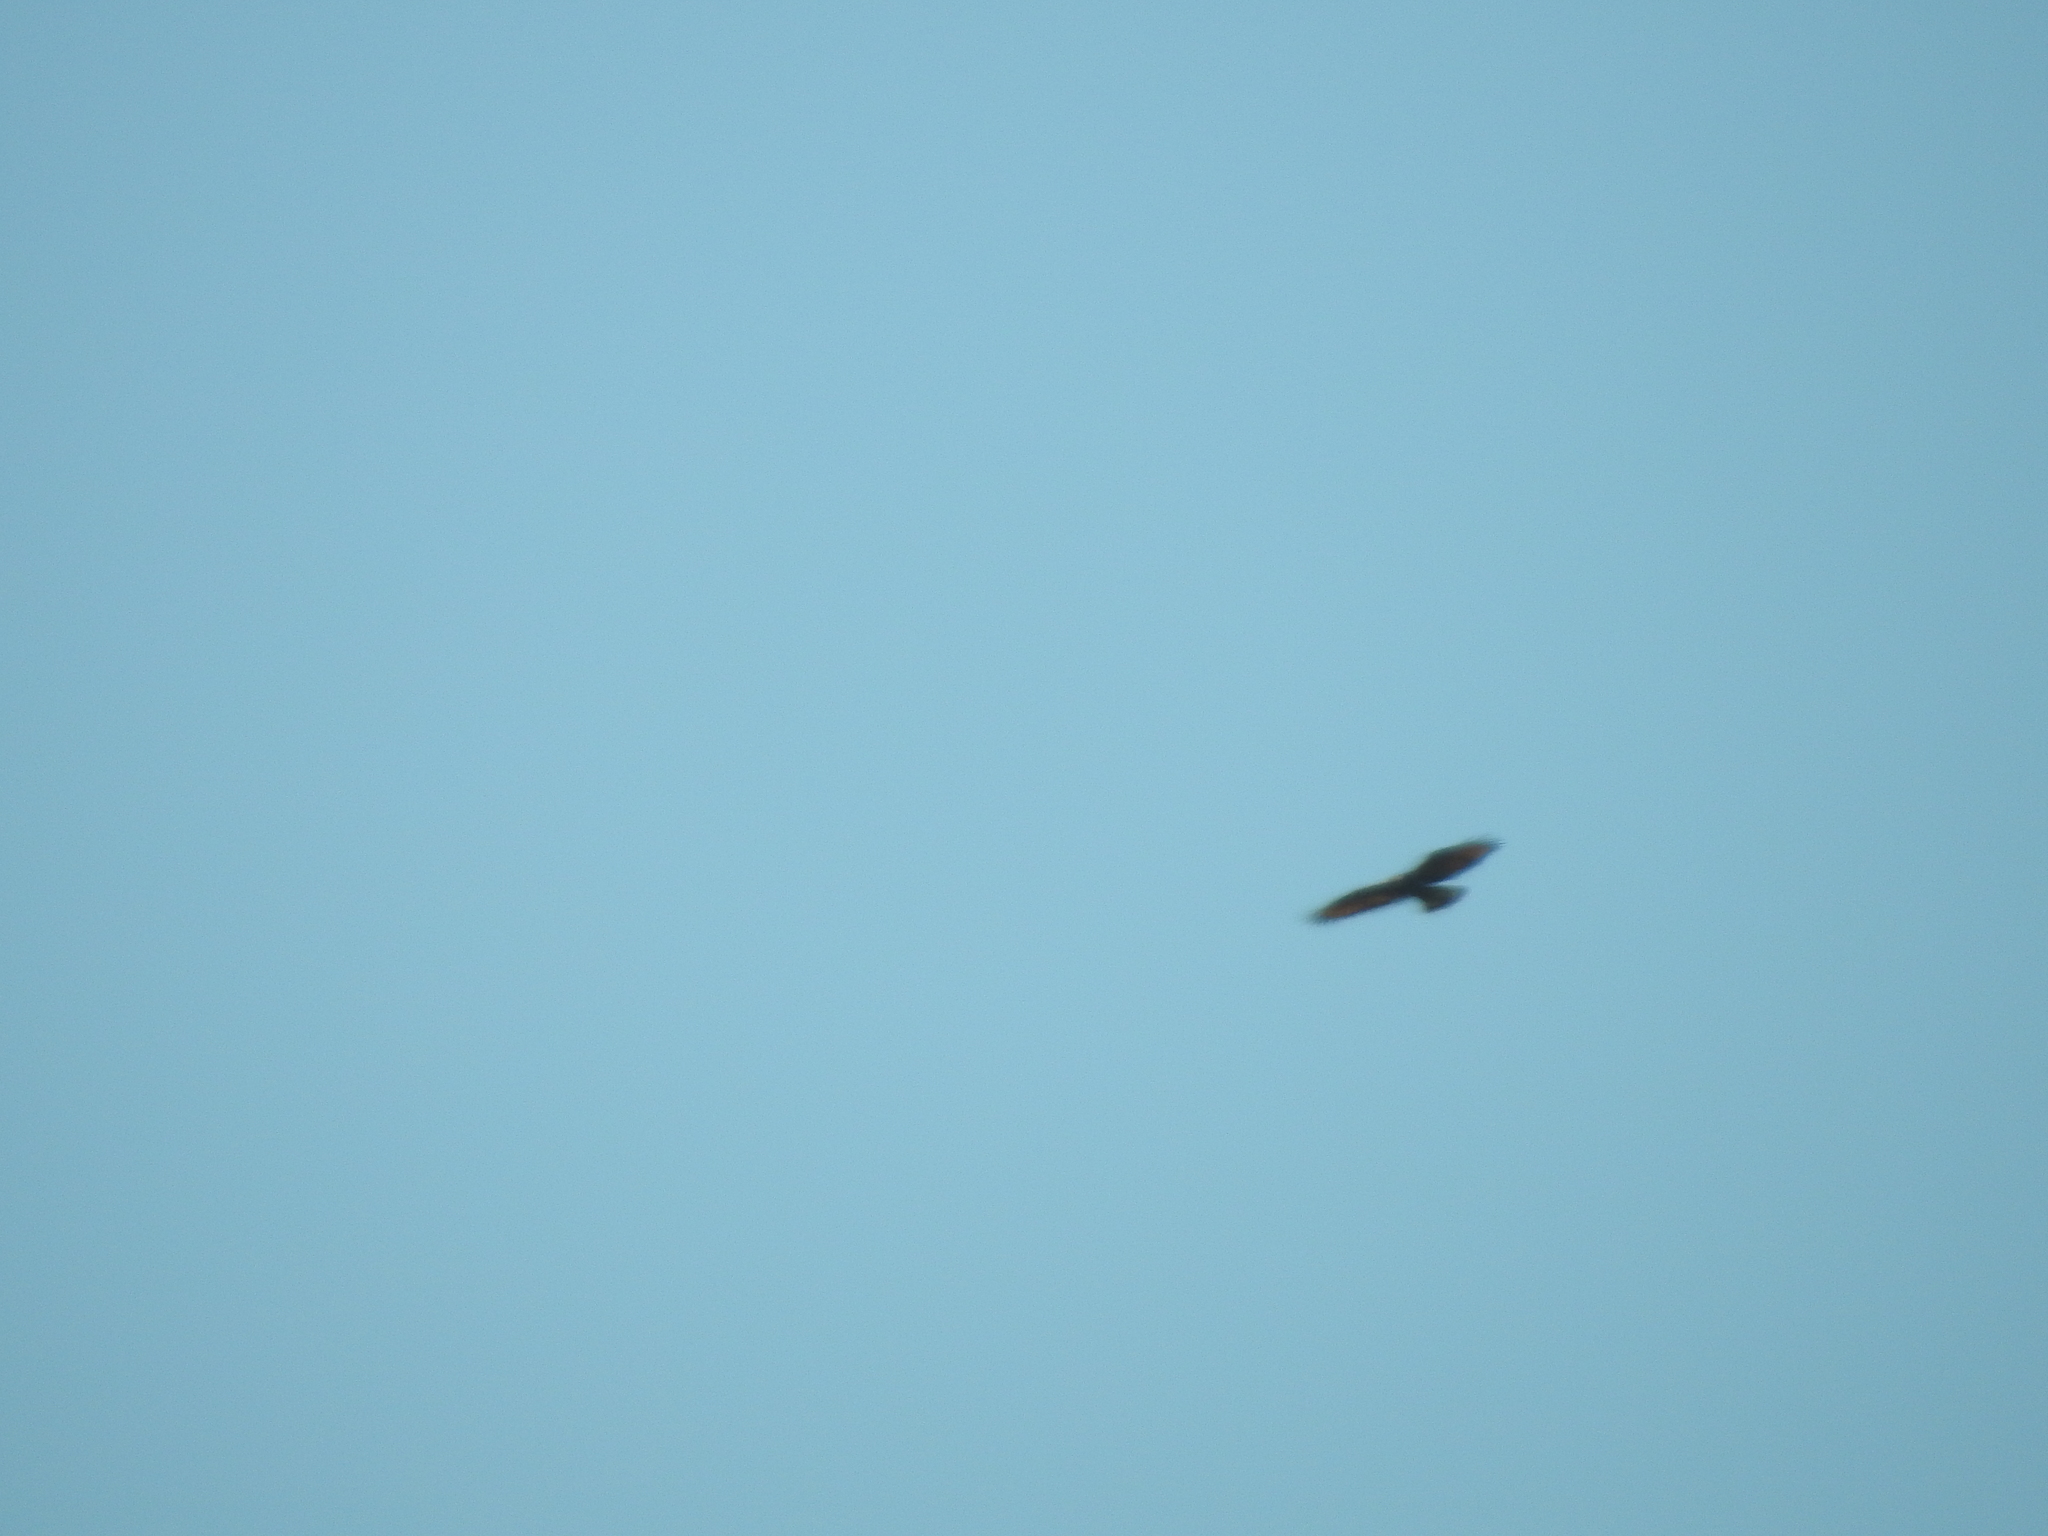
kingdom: Animalia
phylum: Chordata
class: Aves
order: Accipitriformes
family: Accipitridae
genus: Buteogallus
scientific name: Buteogallus meridionalis
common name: Savanna hawk
